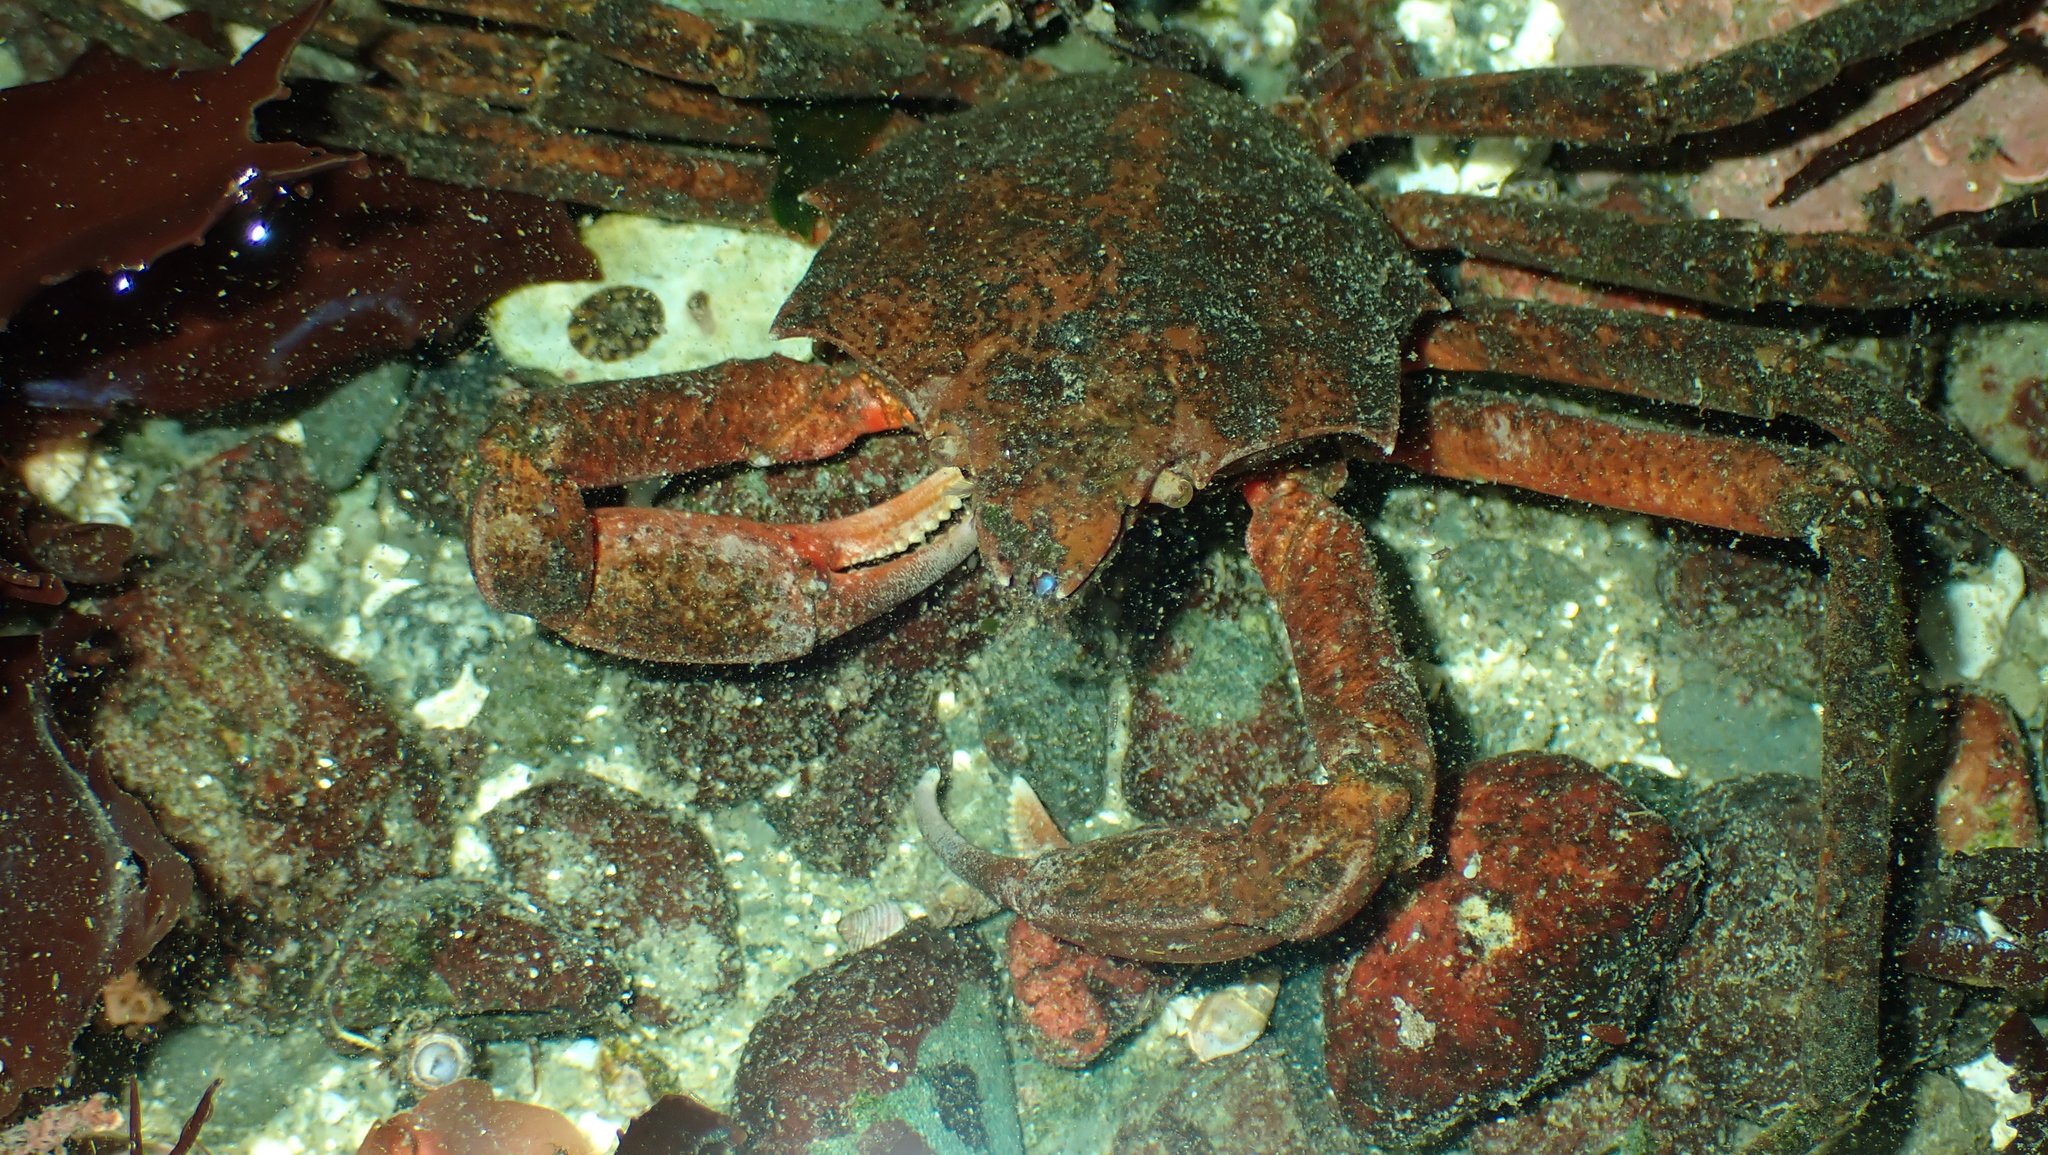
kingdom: Animalia
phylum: Arthropoda
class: Malacostraca
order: Decapoda
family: Epialtidae
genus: Pugettia
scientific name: Pugettia producta
